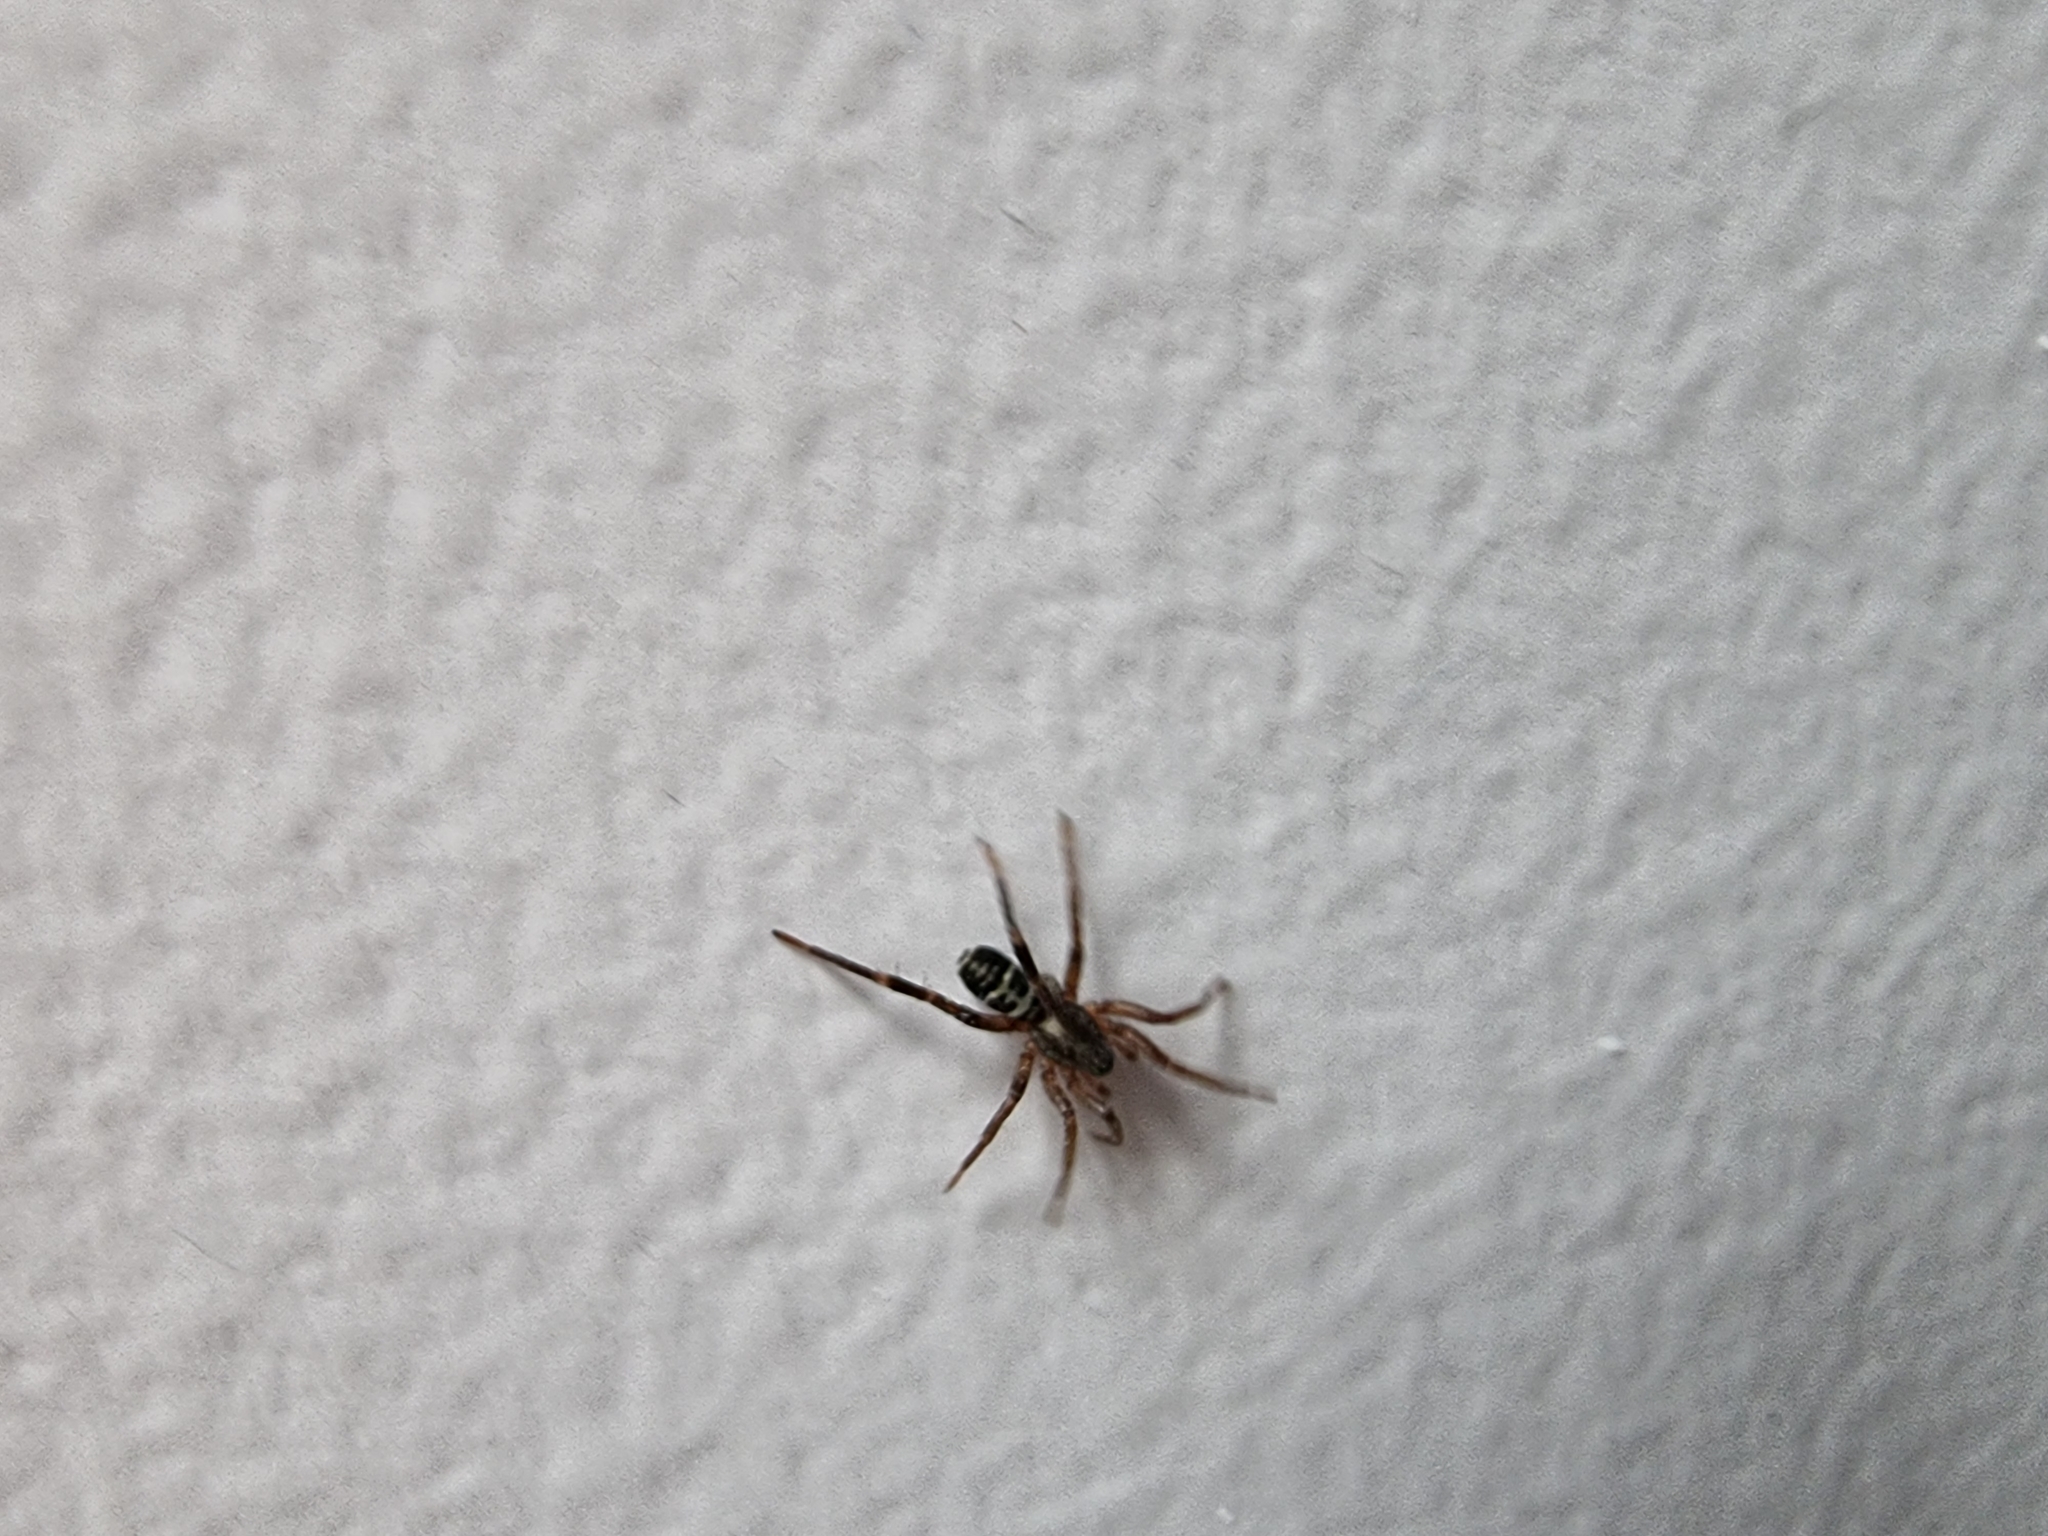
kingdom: Animalia
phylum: Arthropoda
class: Arachnida
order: Araneae
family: Corinnidae
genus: Castianeira
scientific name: Castianeira nanella
